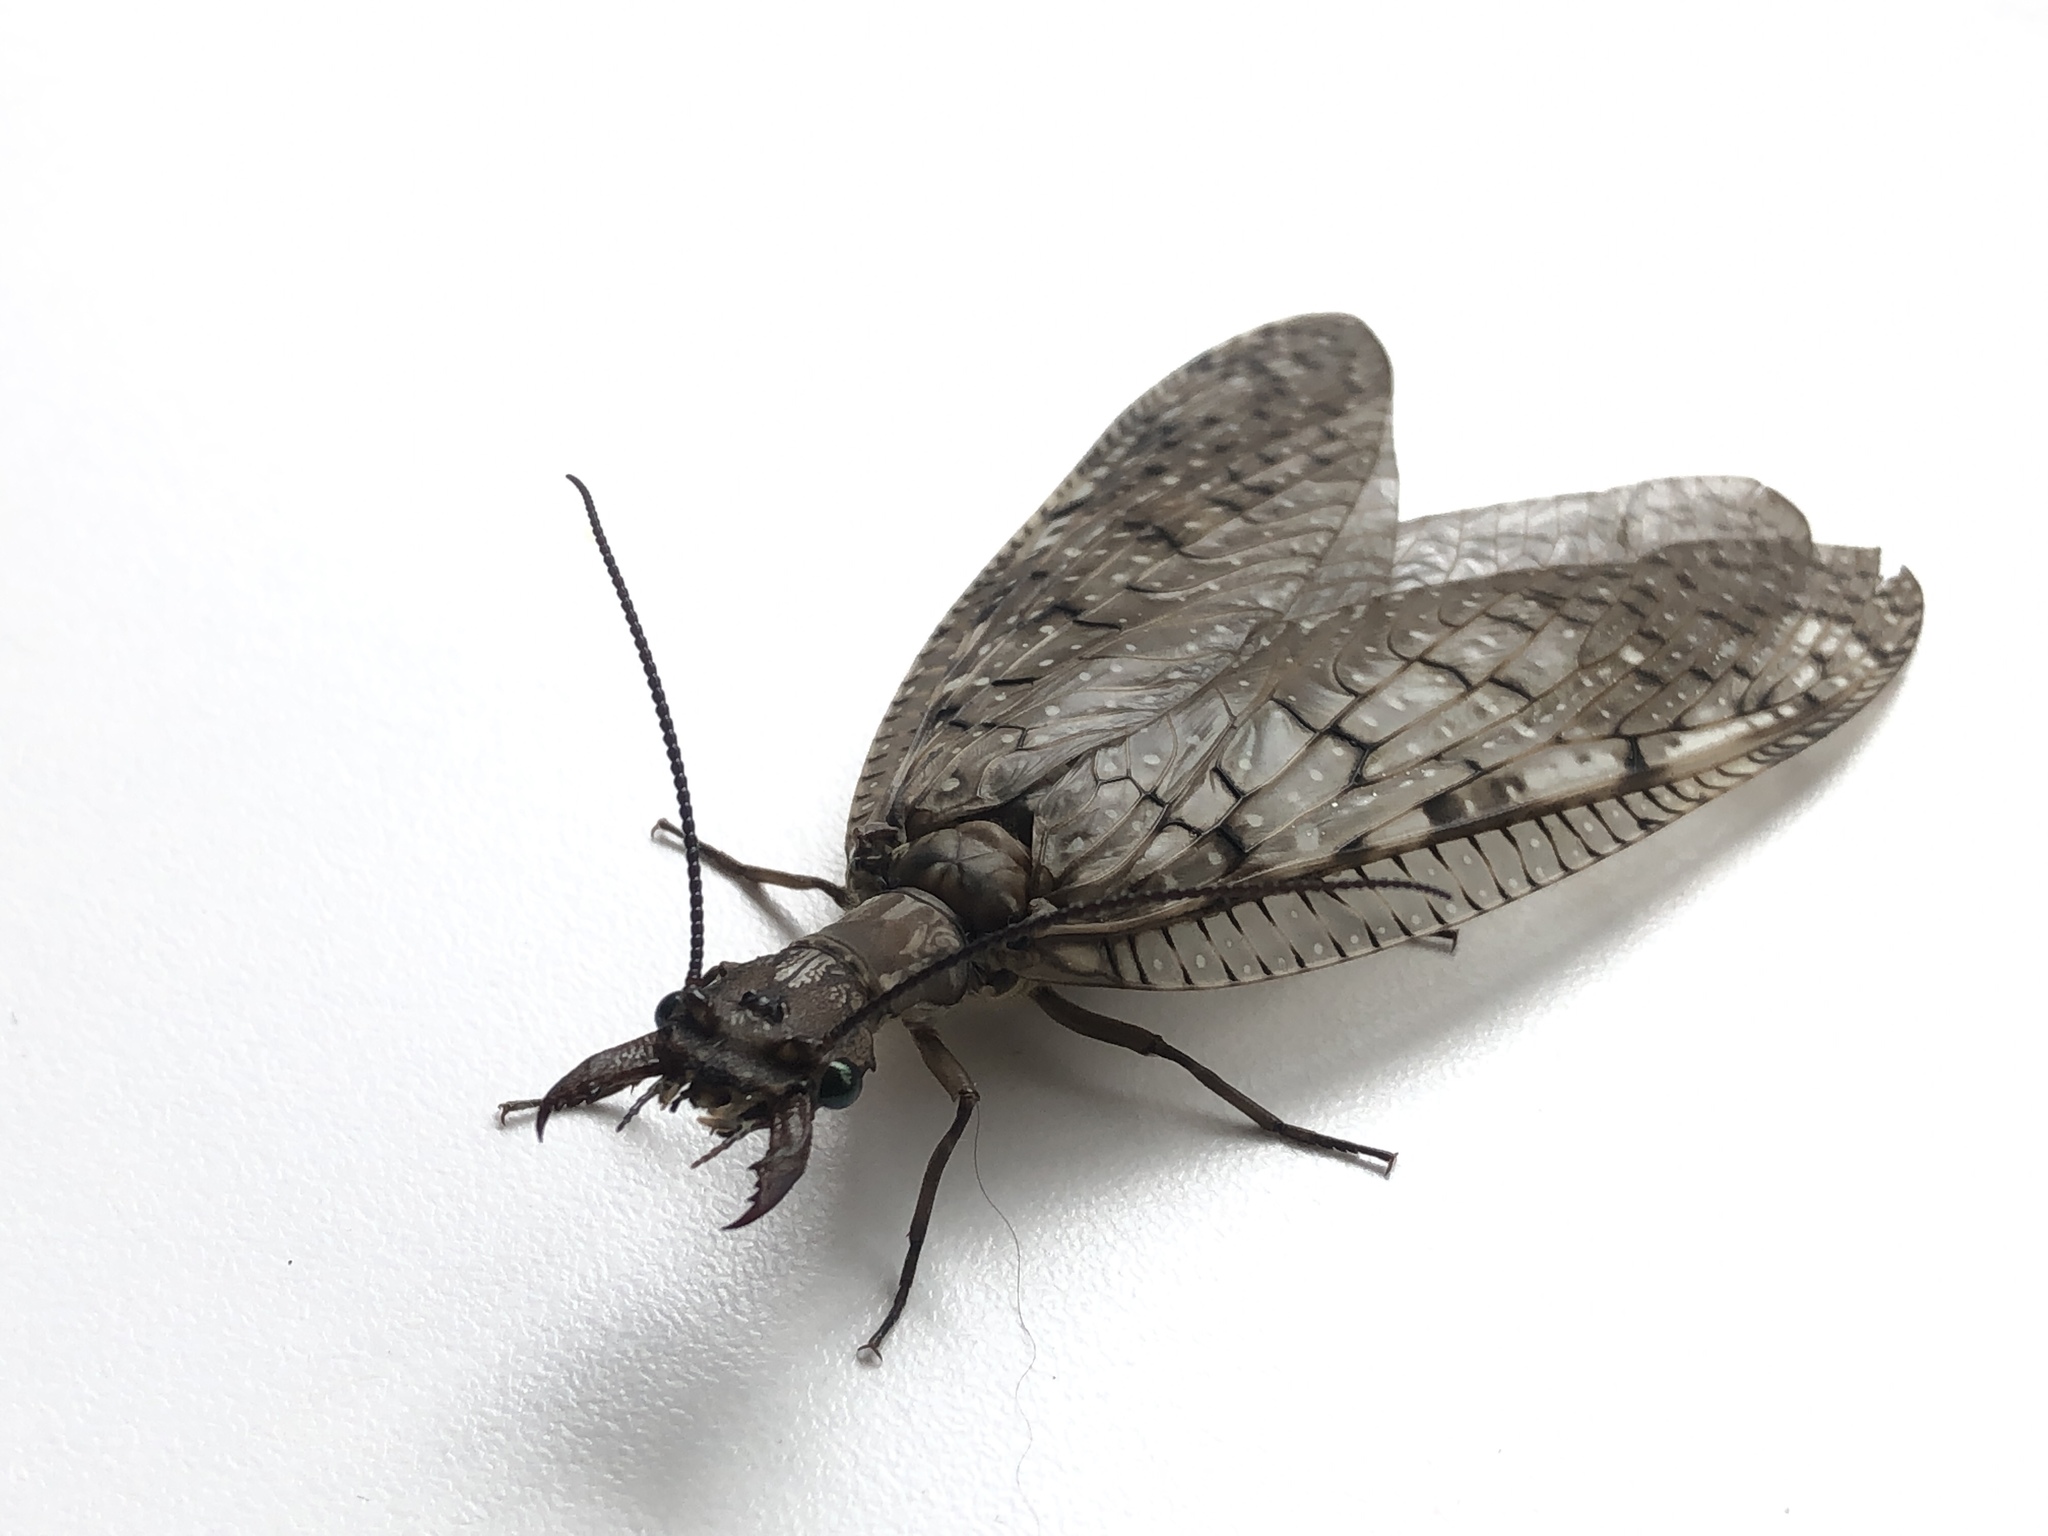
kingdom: Animalia
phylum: Arthropoda
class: Insecta
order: Megaloptera
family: Corydalidae
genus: Corydalus
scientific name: Corydalus cornutus
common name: Dobsonfly
